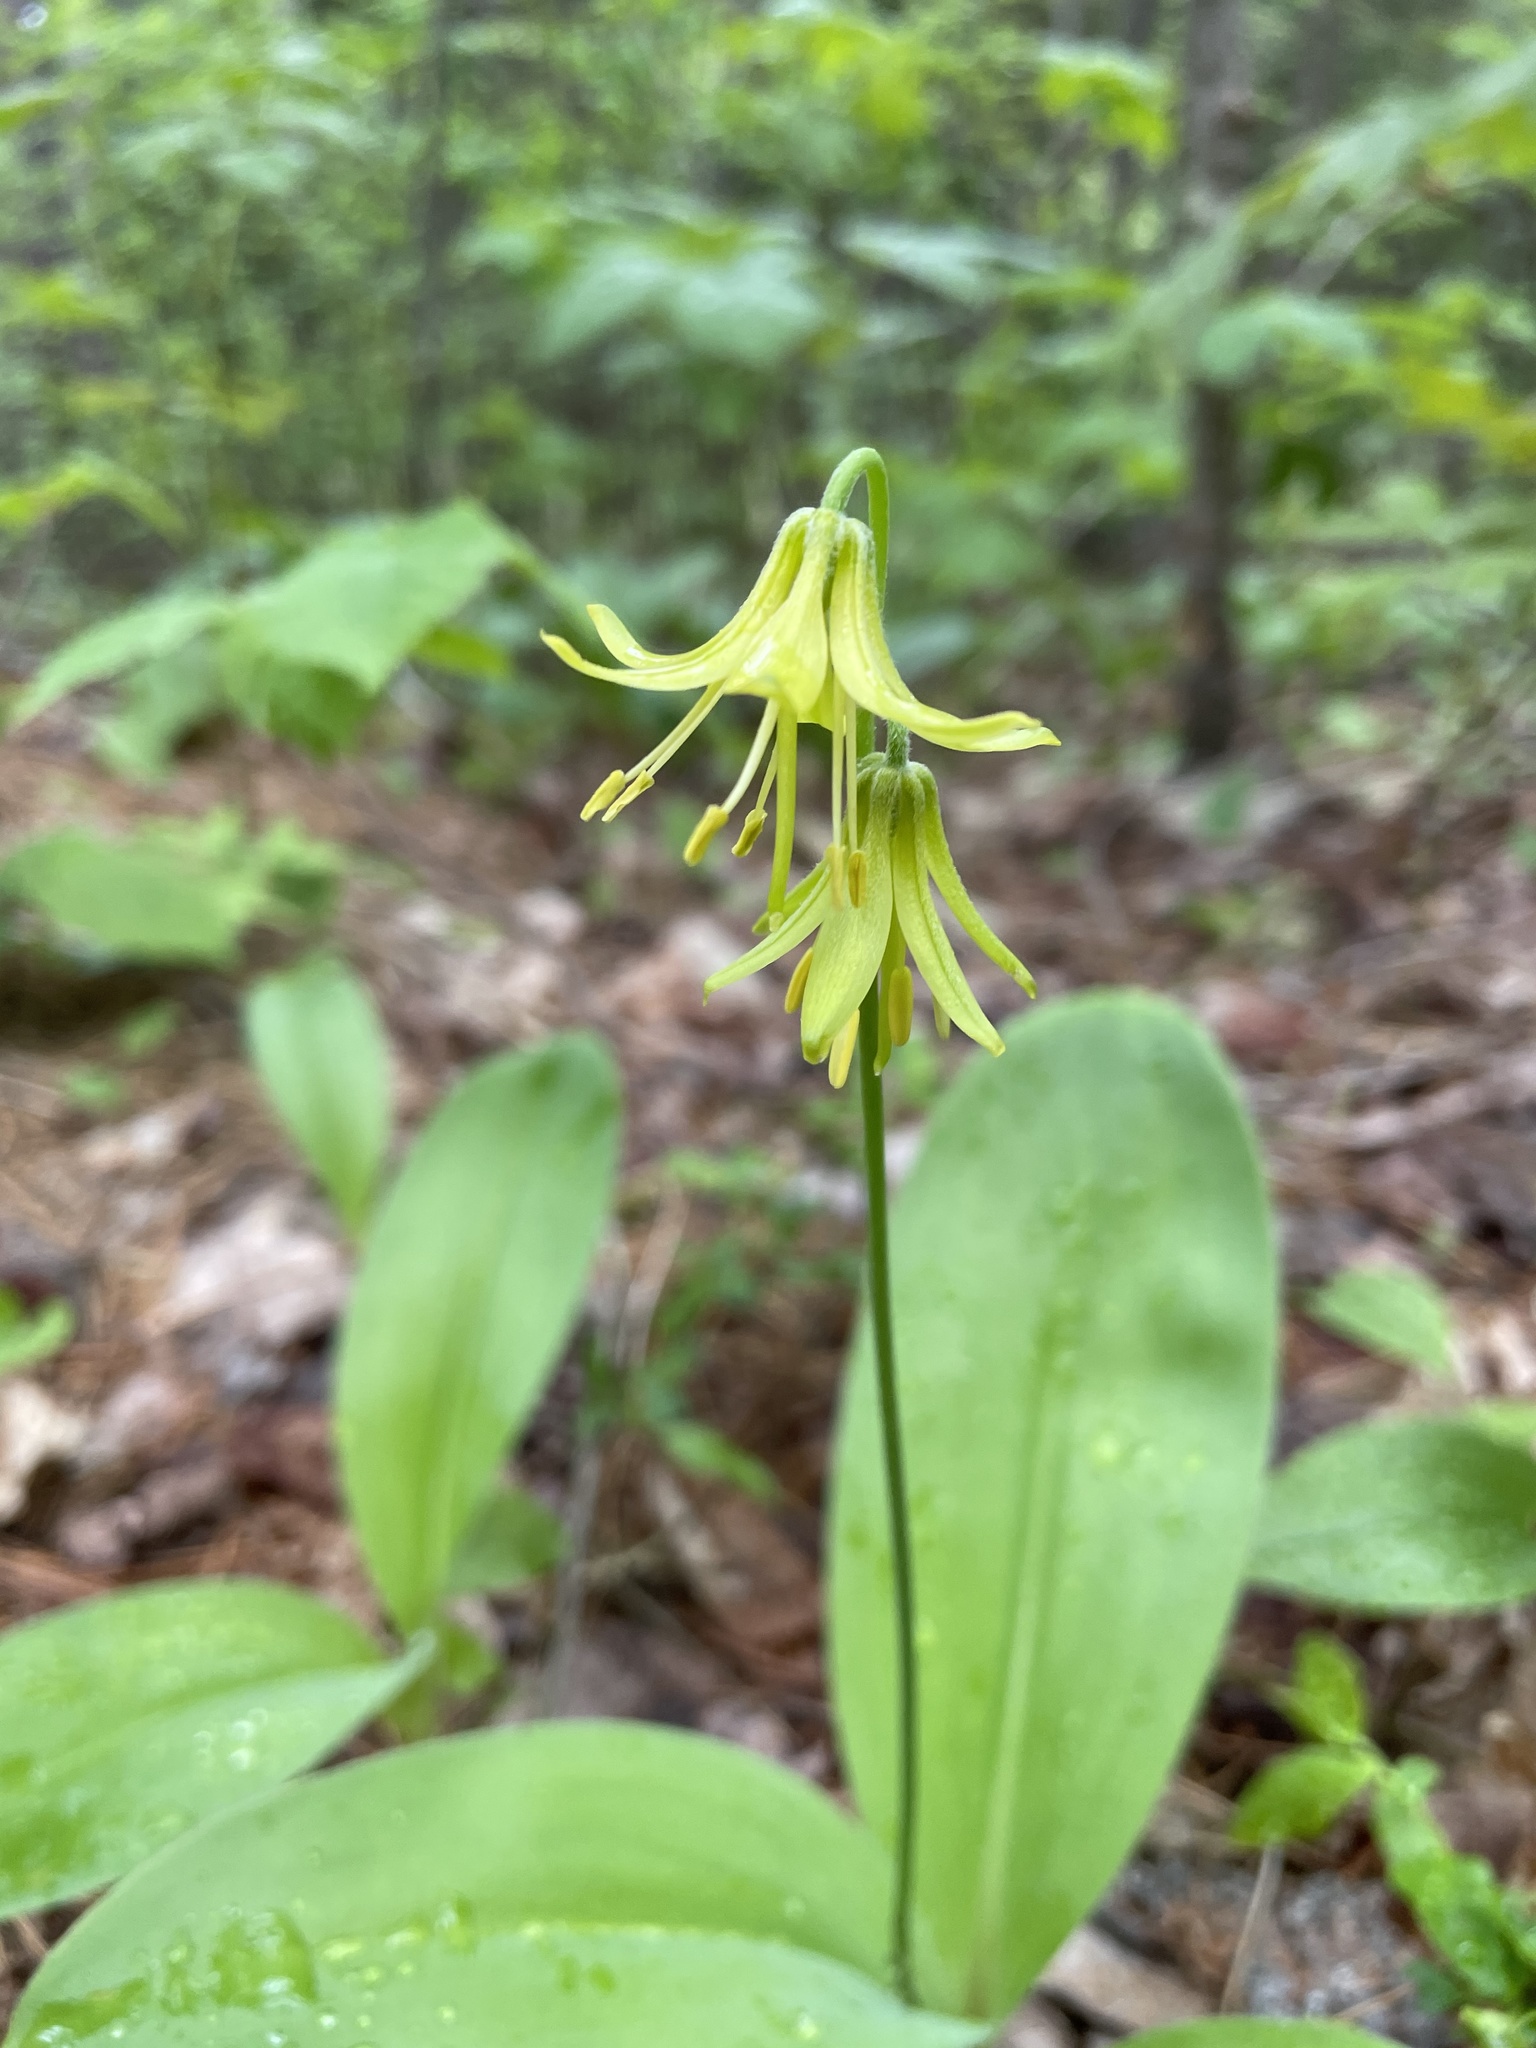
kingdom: Plantae
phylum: Tracheophyta
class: Liliopsida
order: Liliales
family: Liliaceae
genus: Clintonia
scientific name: Clintonia borealis
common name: Yellow clintonia
